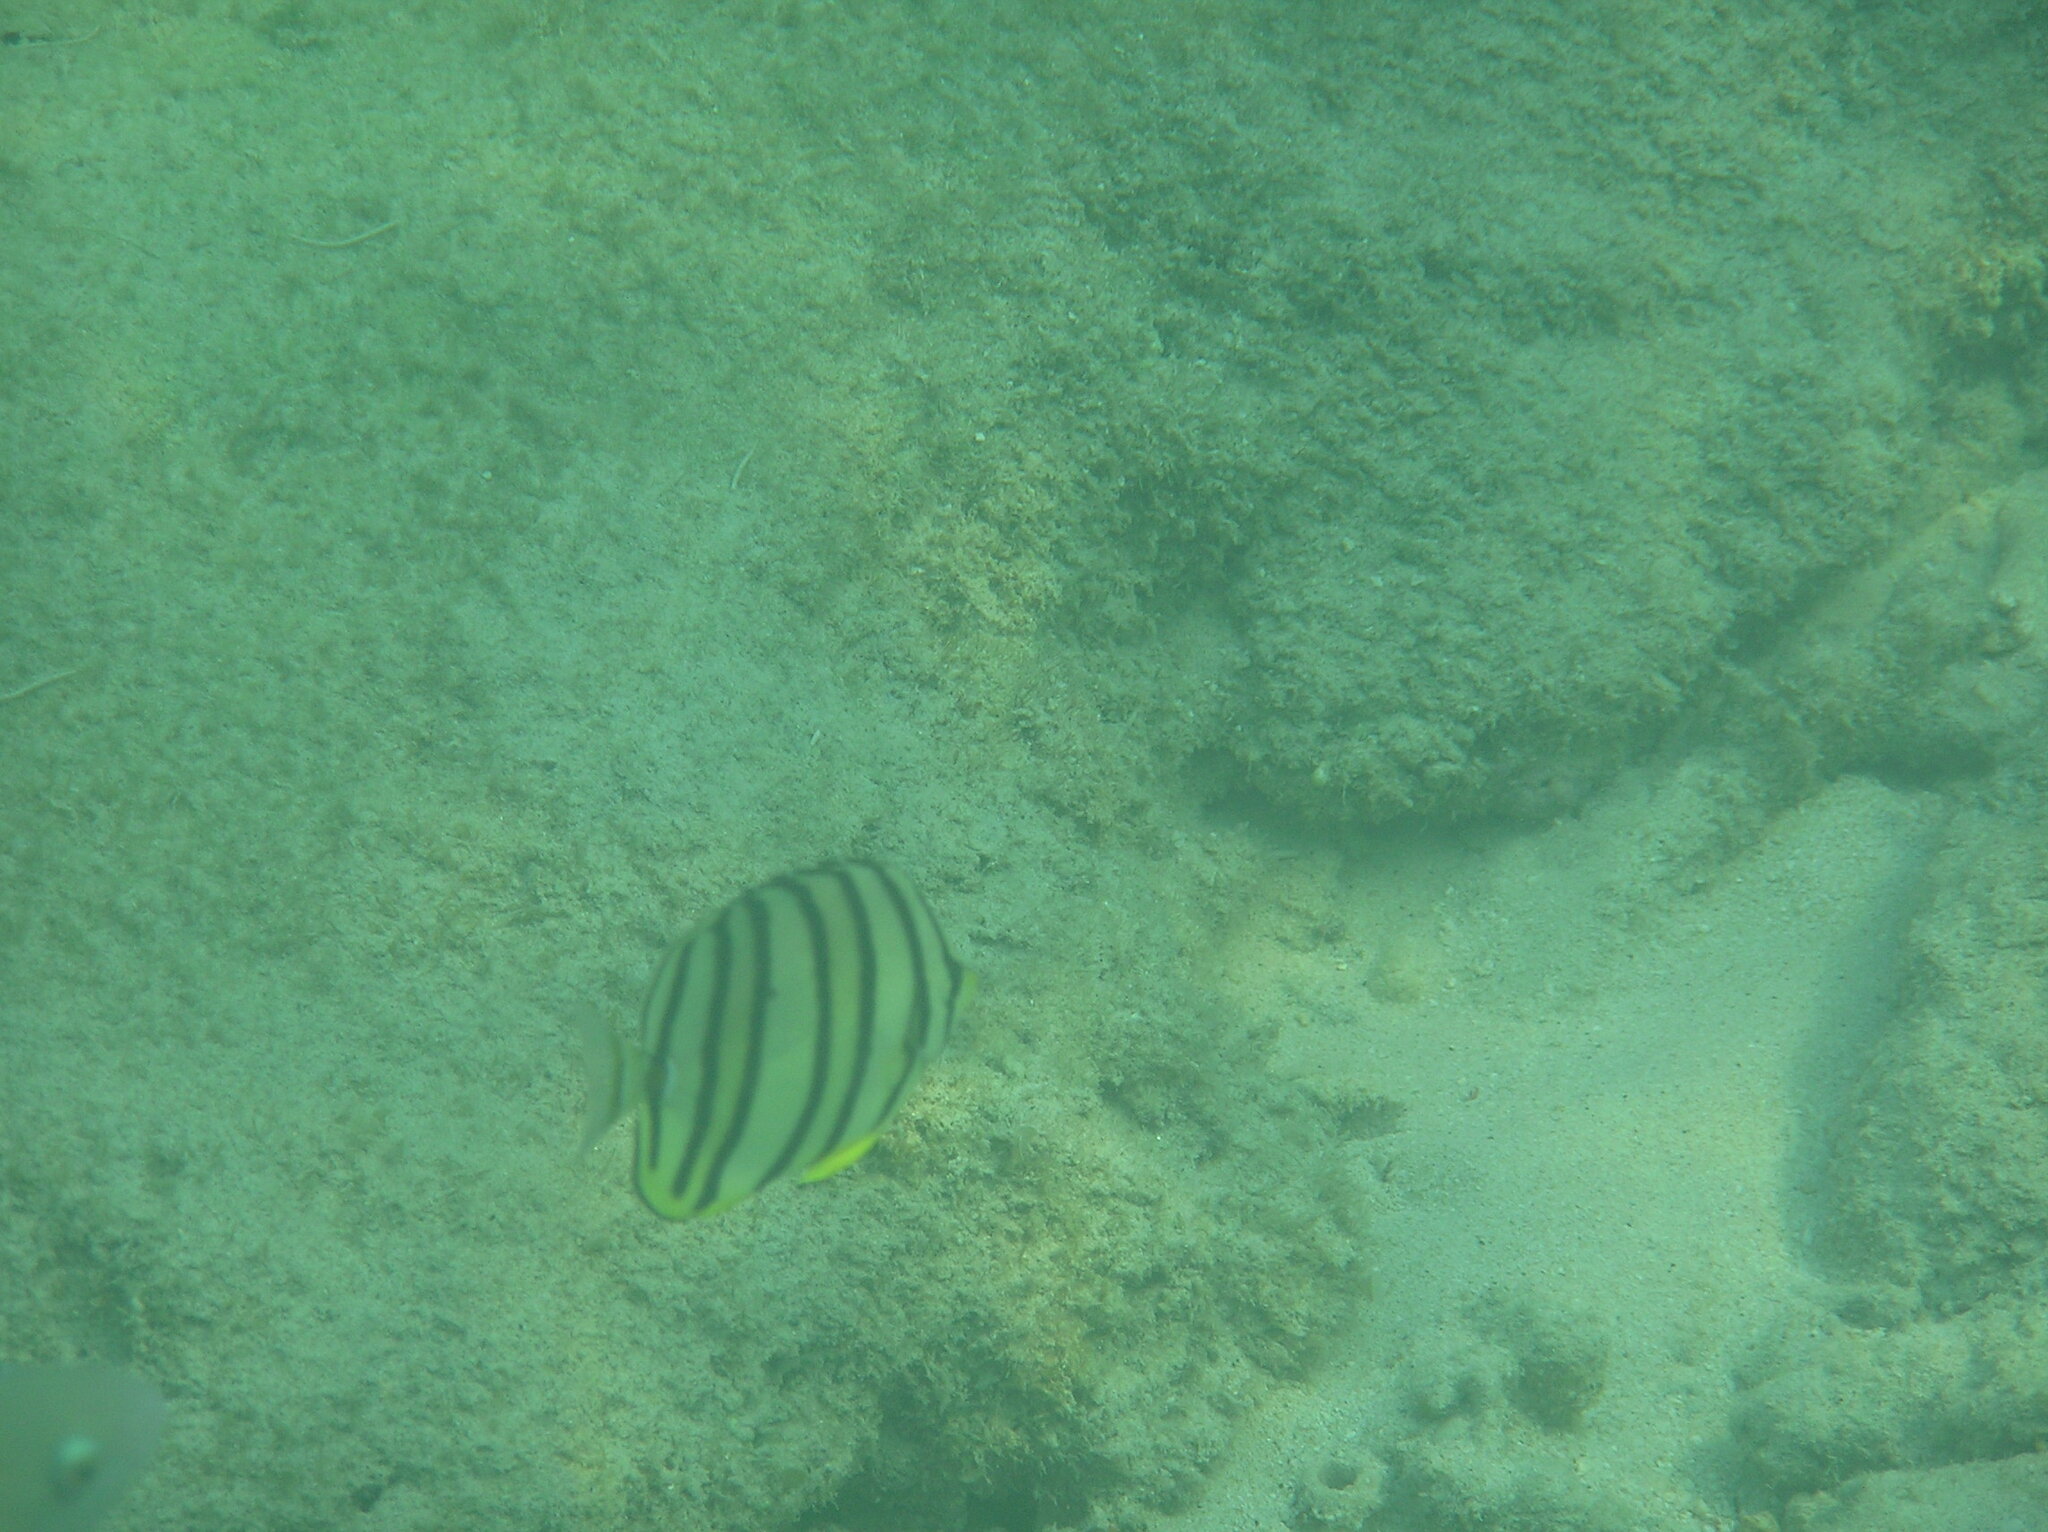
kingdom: Animalia
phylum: Chordata
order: Perciformes
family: Chaetodontidae
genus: Chaetodon
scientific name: Chaetodon octofasciatus
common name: Eightband butterflyfish
